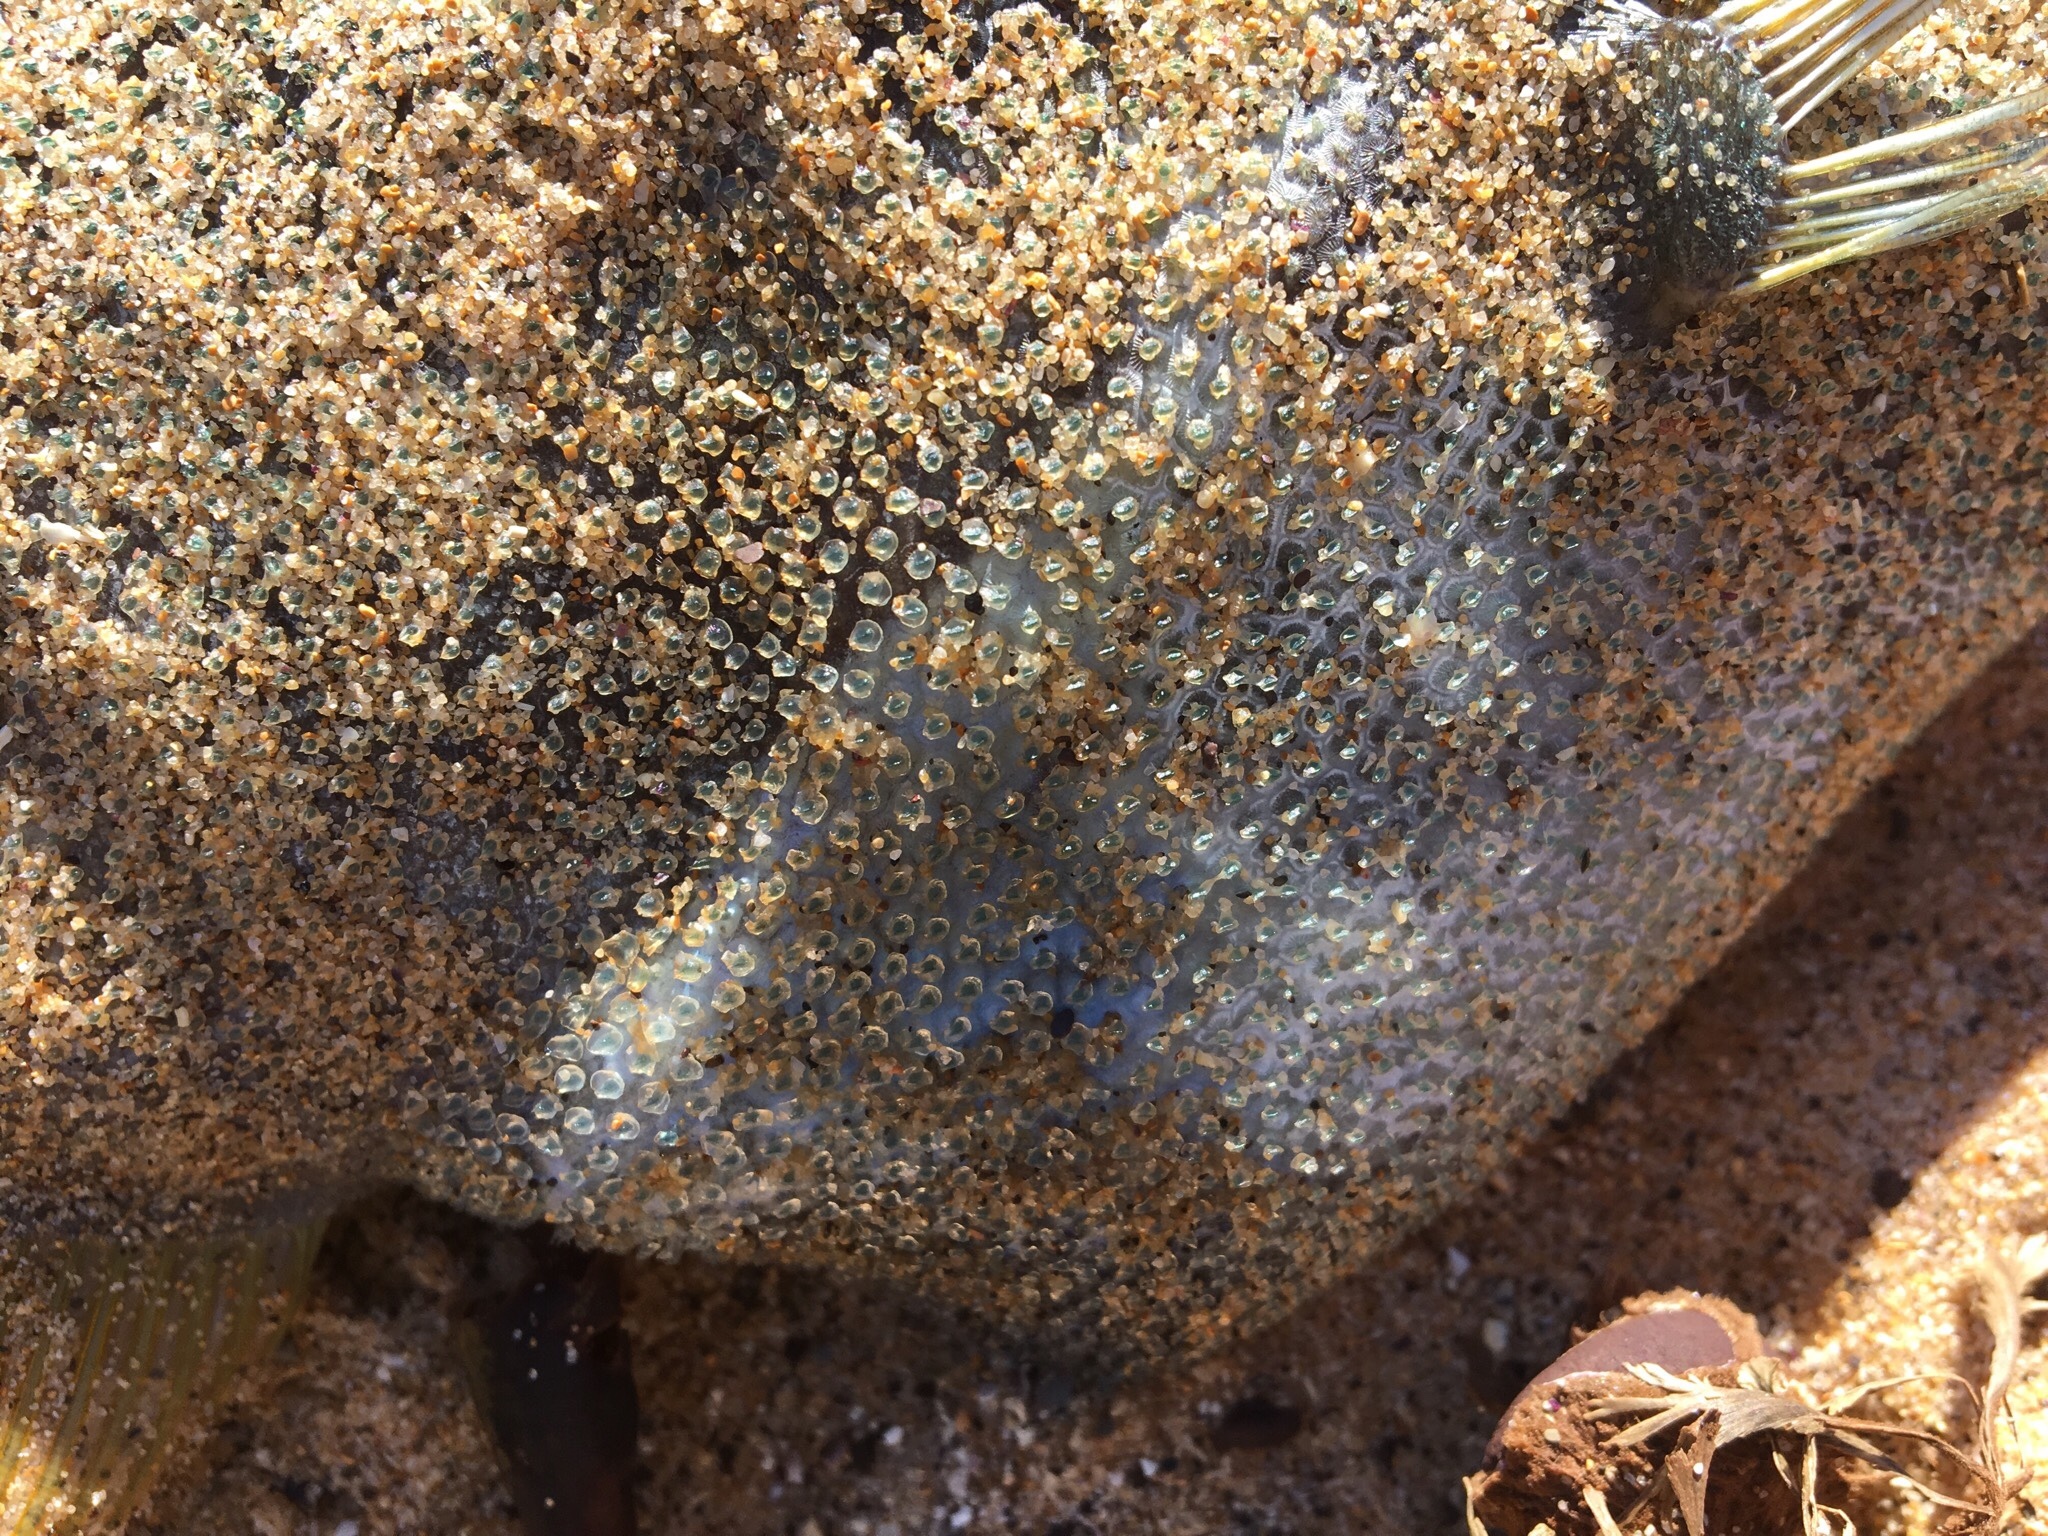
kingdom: Animalia
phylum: Chordata
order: Tetraodontiformes
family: Monacanthidae
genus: Scobinichthys
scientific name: Scobinichthys granulatus
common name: Rough leatherjacket
